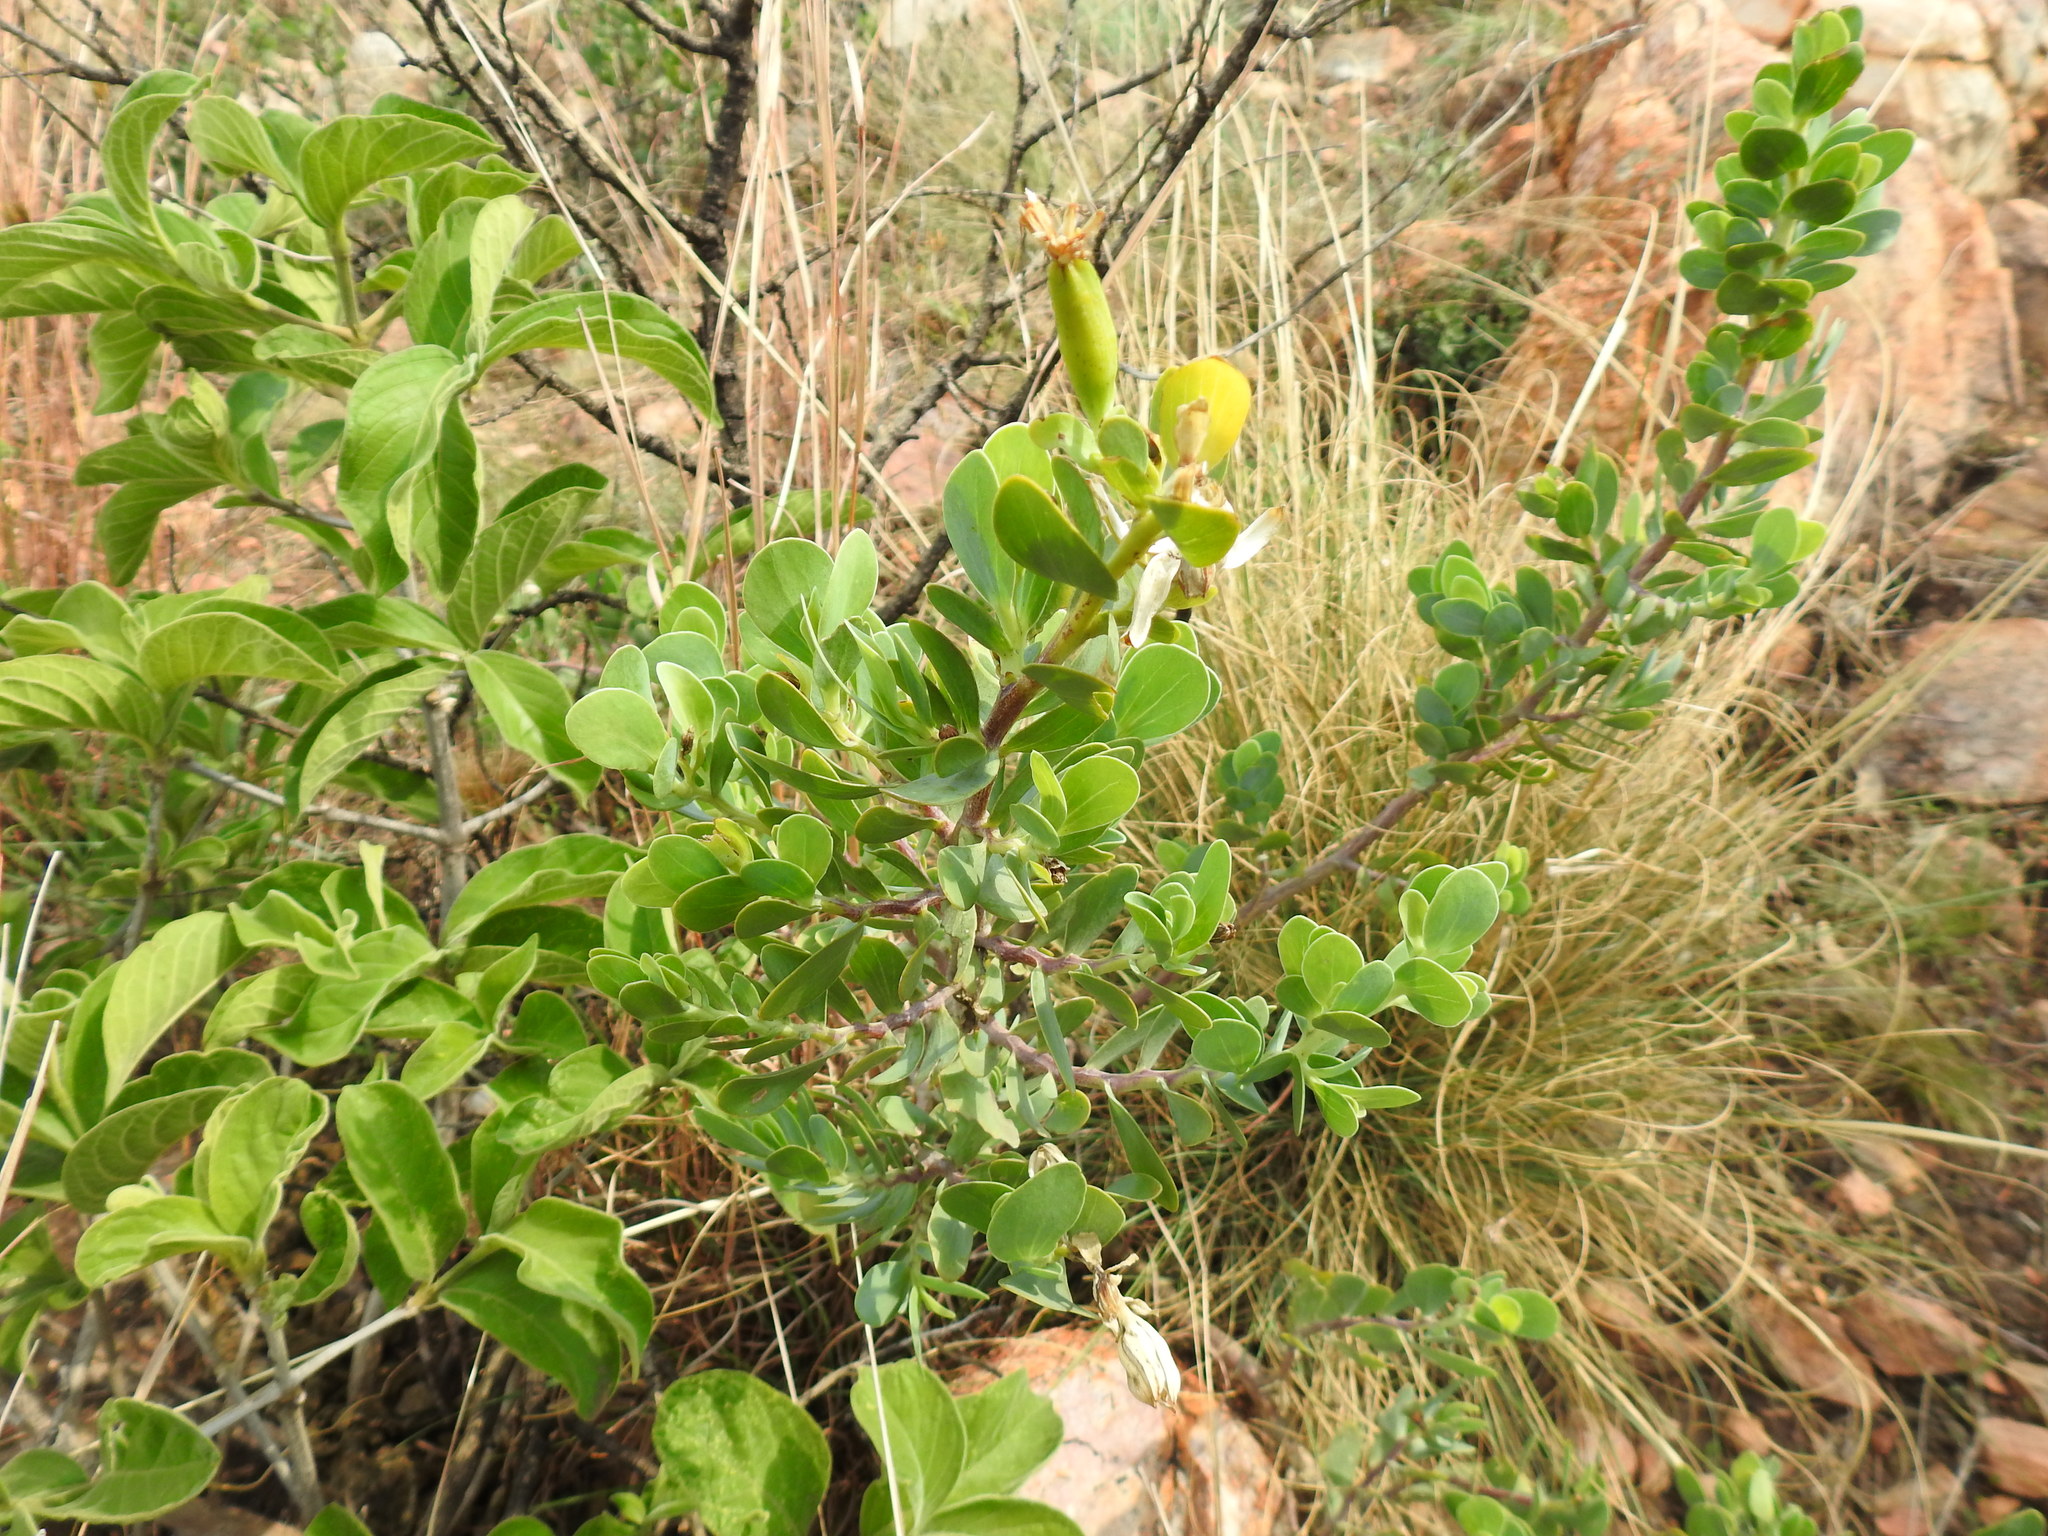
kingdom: Plantae
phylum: Tracheophyta
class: Magnoliopsida
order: Asterales
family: Asteraceae
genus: Lopholaena
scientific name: Lopholaena coriifolia
